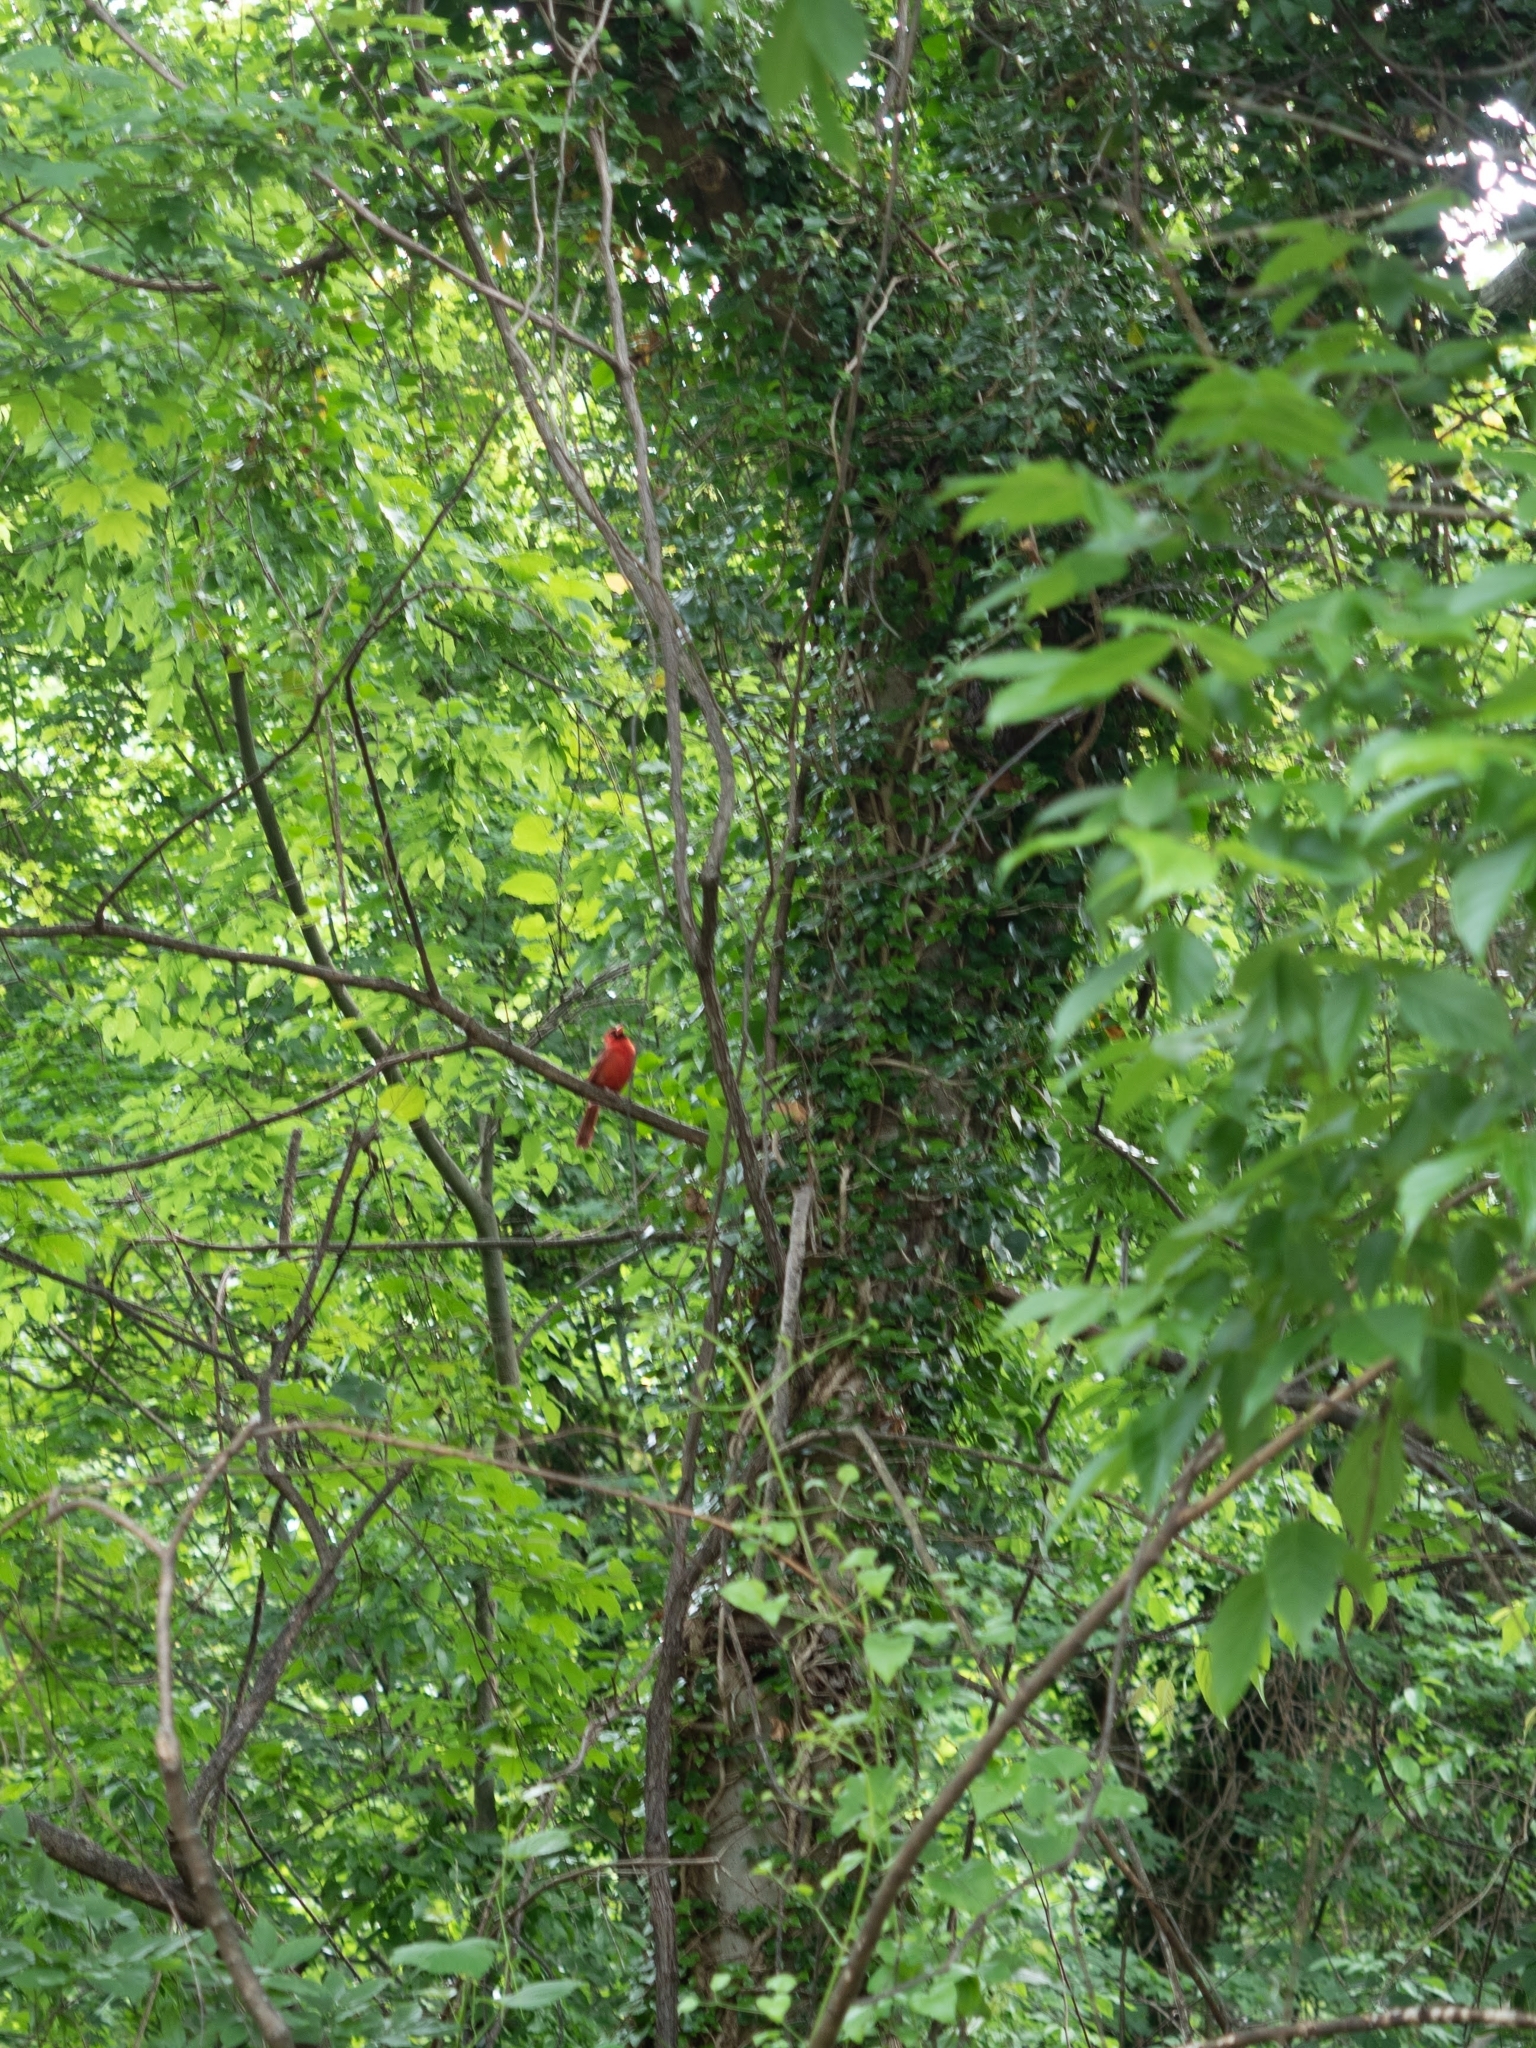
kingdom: Animalia
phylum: Chordata
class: Aves
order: Passeriformes
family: Cardinalidae
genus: Cardinalis
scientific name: Cardinalis cardinalis
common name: Northern cardinal
